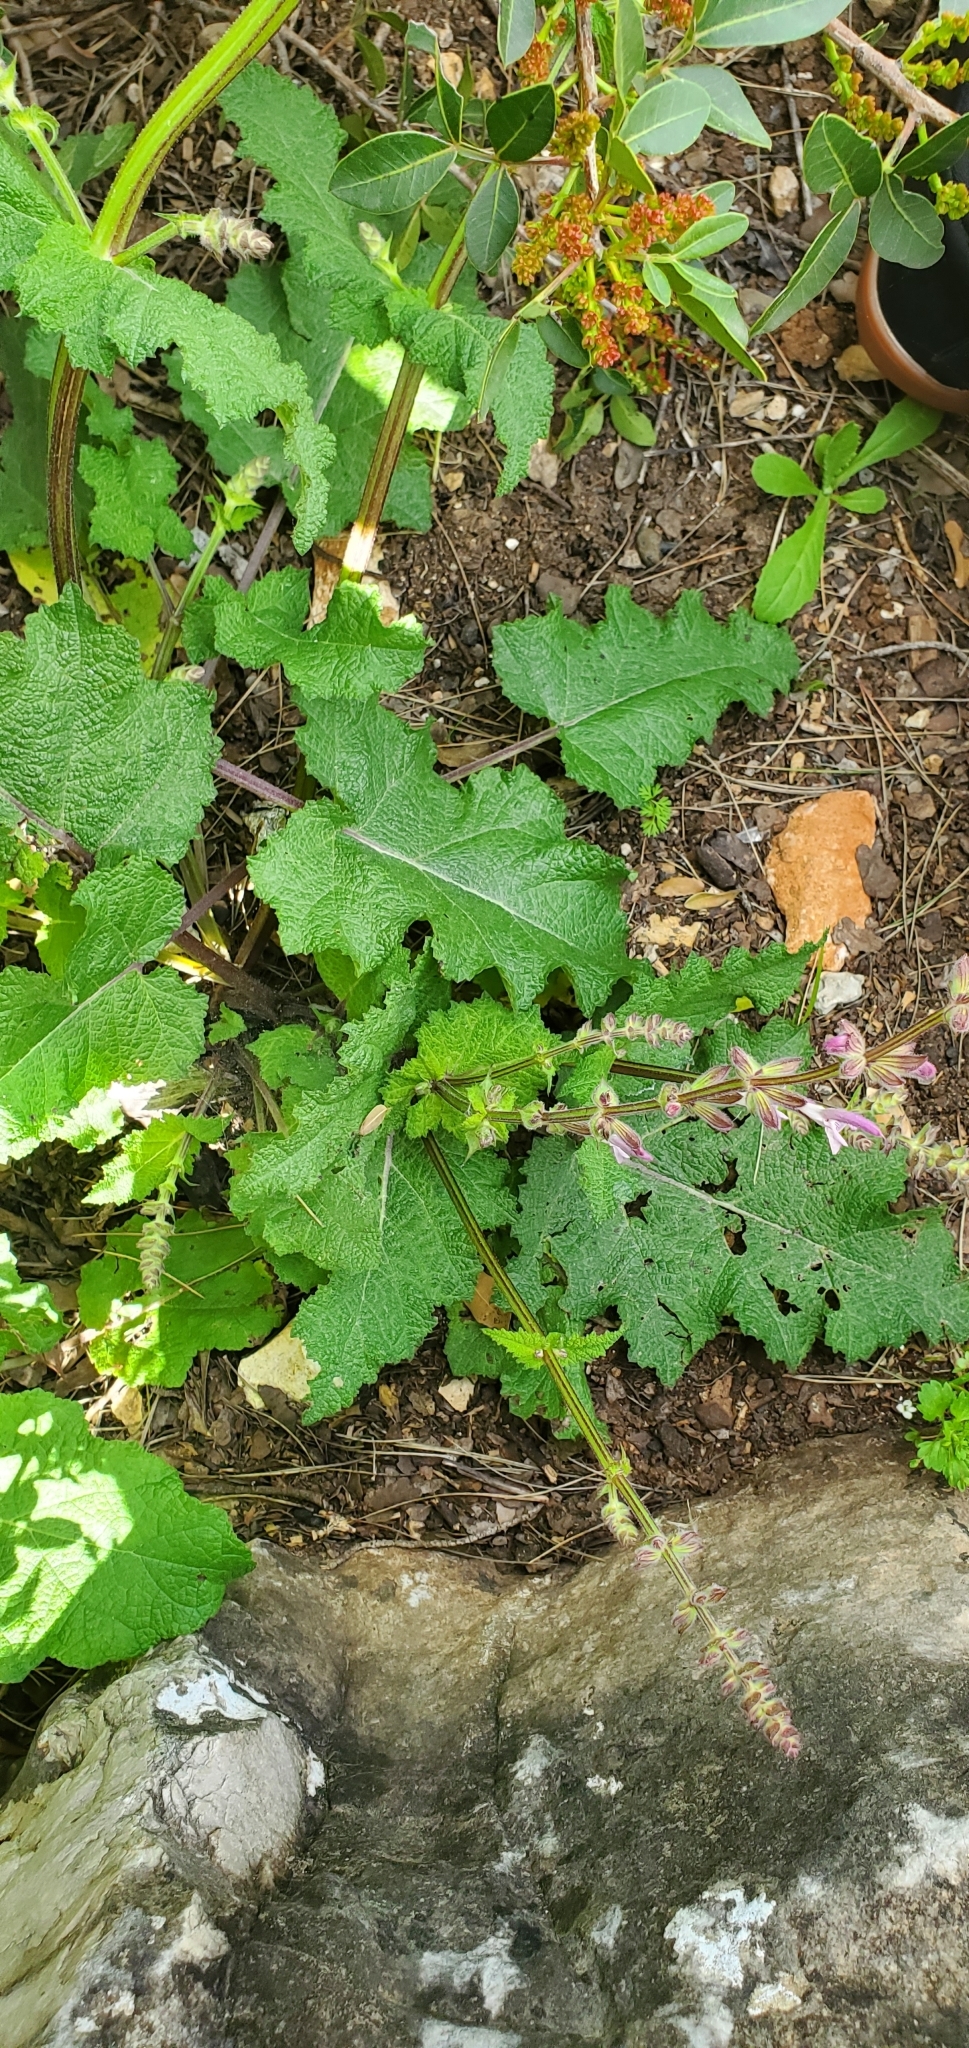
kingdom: Plantae
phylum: Tracheophyta
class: Magnoliopsida
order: Lamiales
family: Lamiaceae
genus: Salvia
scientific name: Salvia hierosolymitana
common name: Jerusalem salvia
